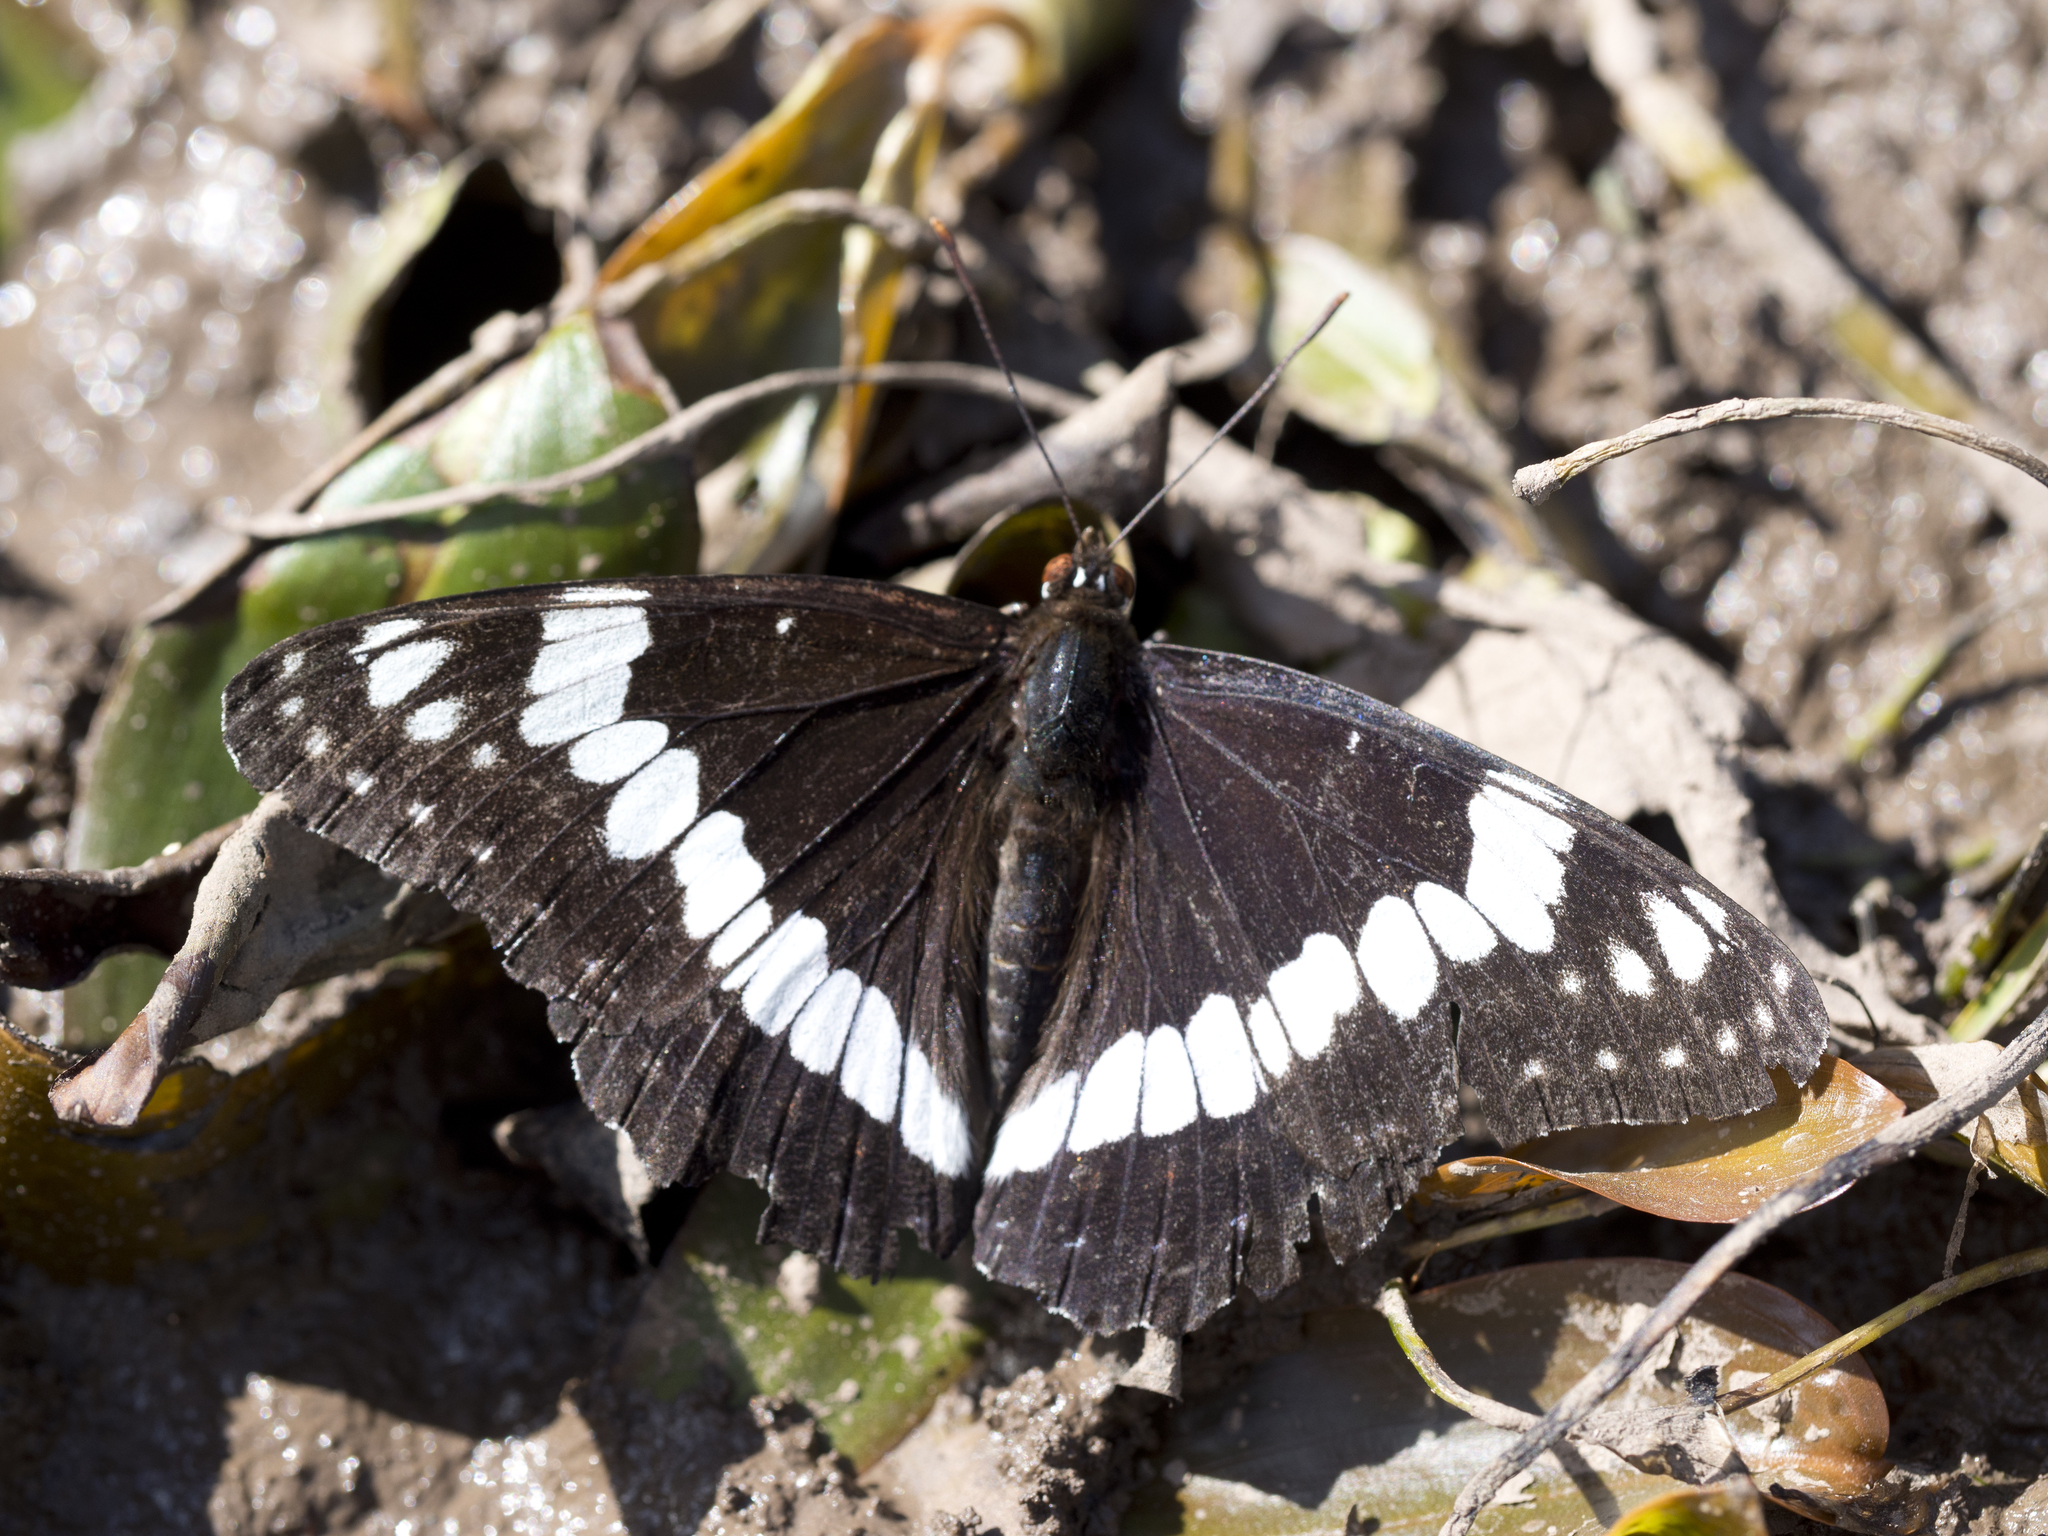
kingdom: Animalia
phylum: Arthropoda
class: Insecta
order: Lepidoptera
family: Nymphalidae
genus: Limenitis
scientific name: Limenitis weidemeyerii
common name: Weidemeyer's admiral
